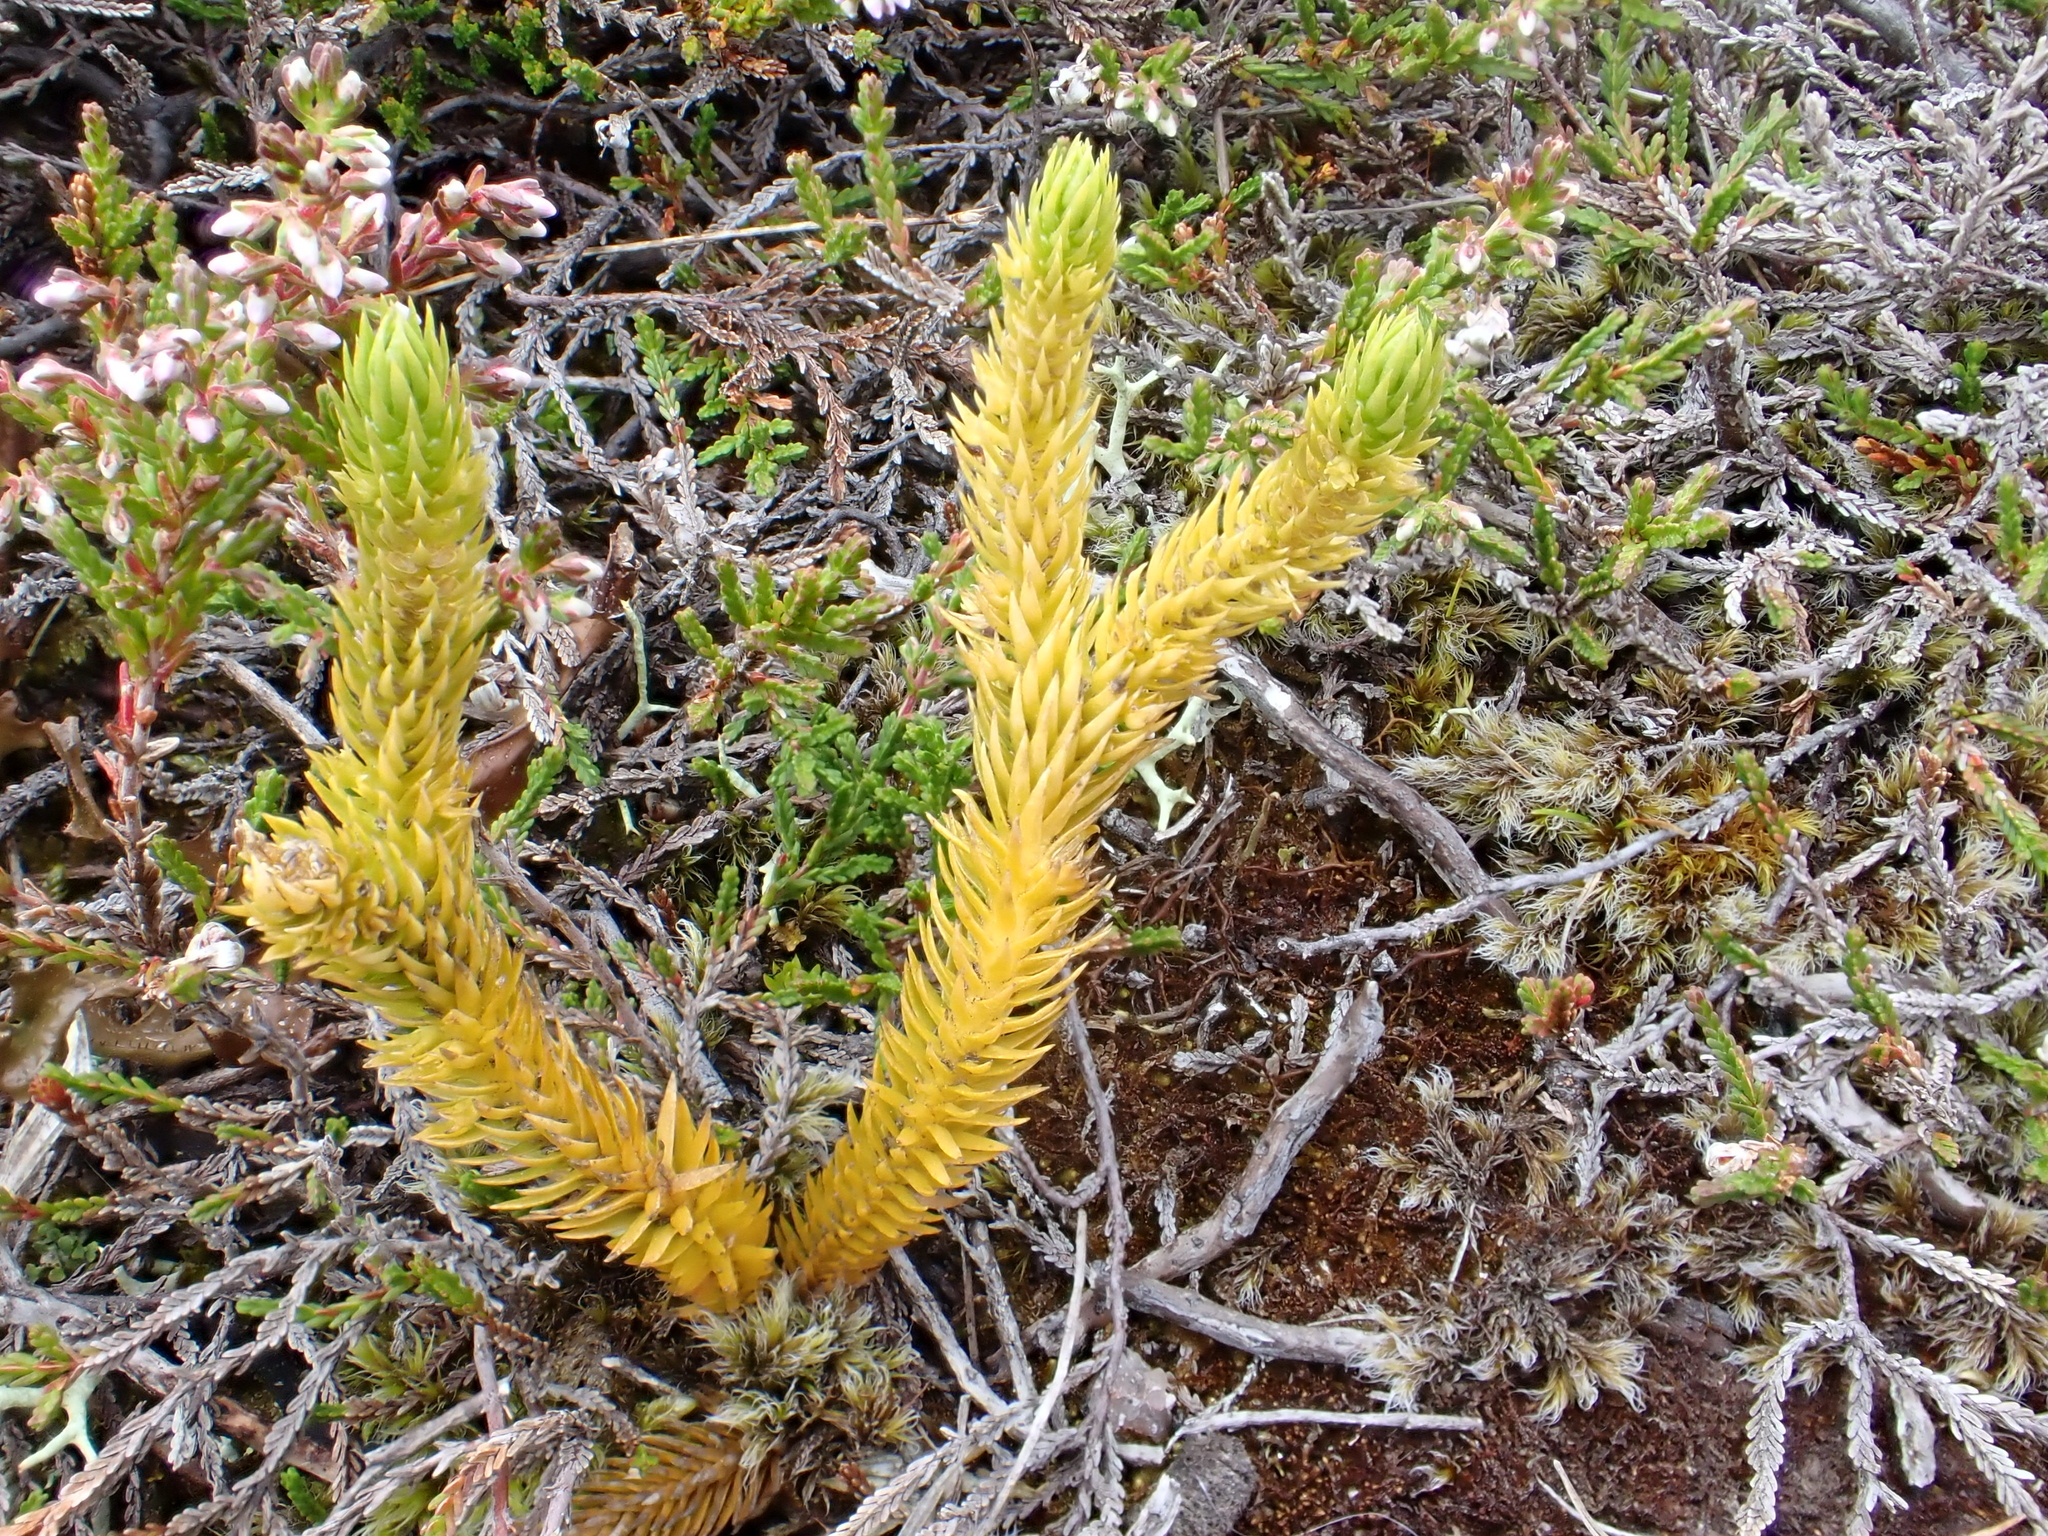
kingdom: Plantae
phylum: Tracheophyta
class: Lycopodiopsida
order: Lycopodiales
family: Lycopodiaceae
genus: Huperzia
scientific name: Huperzia selago
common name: Northern firmoss
